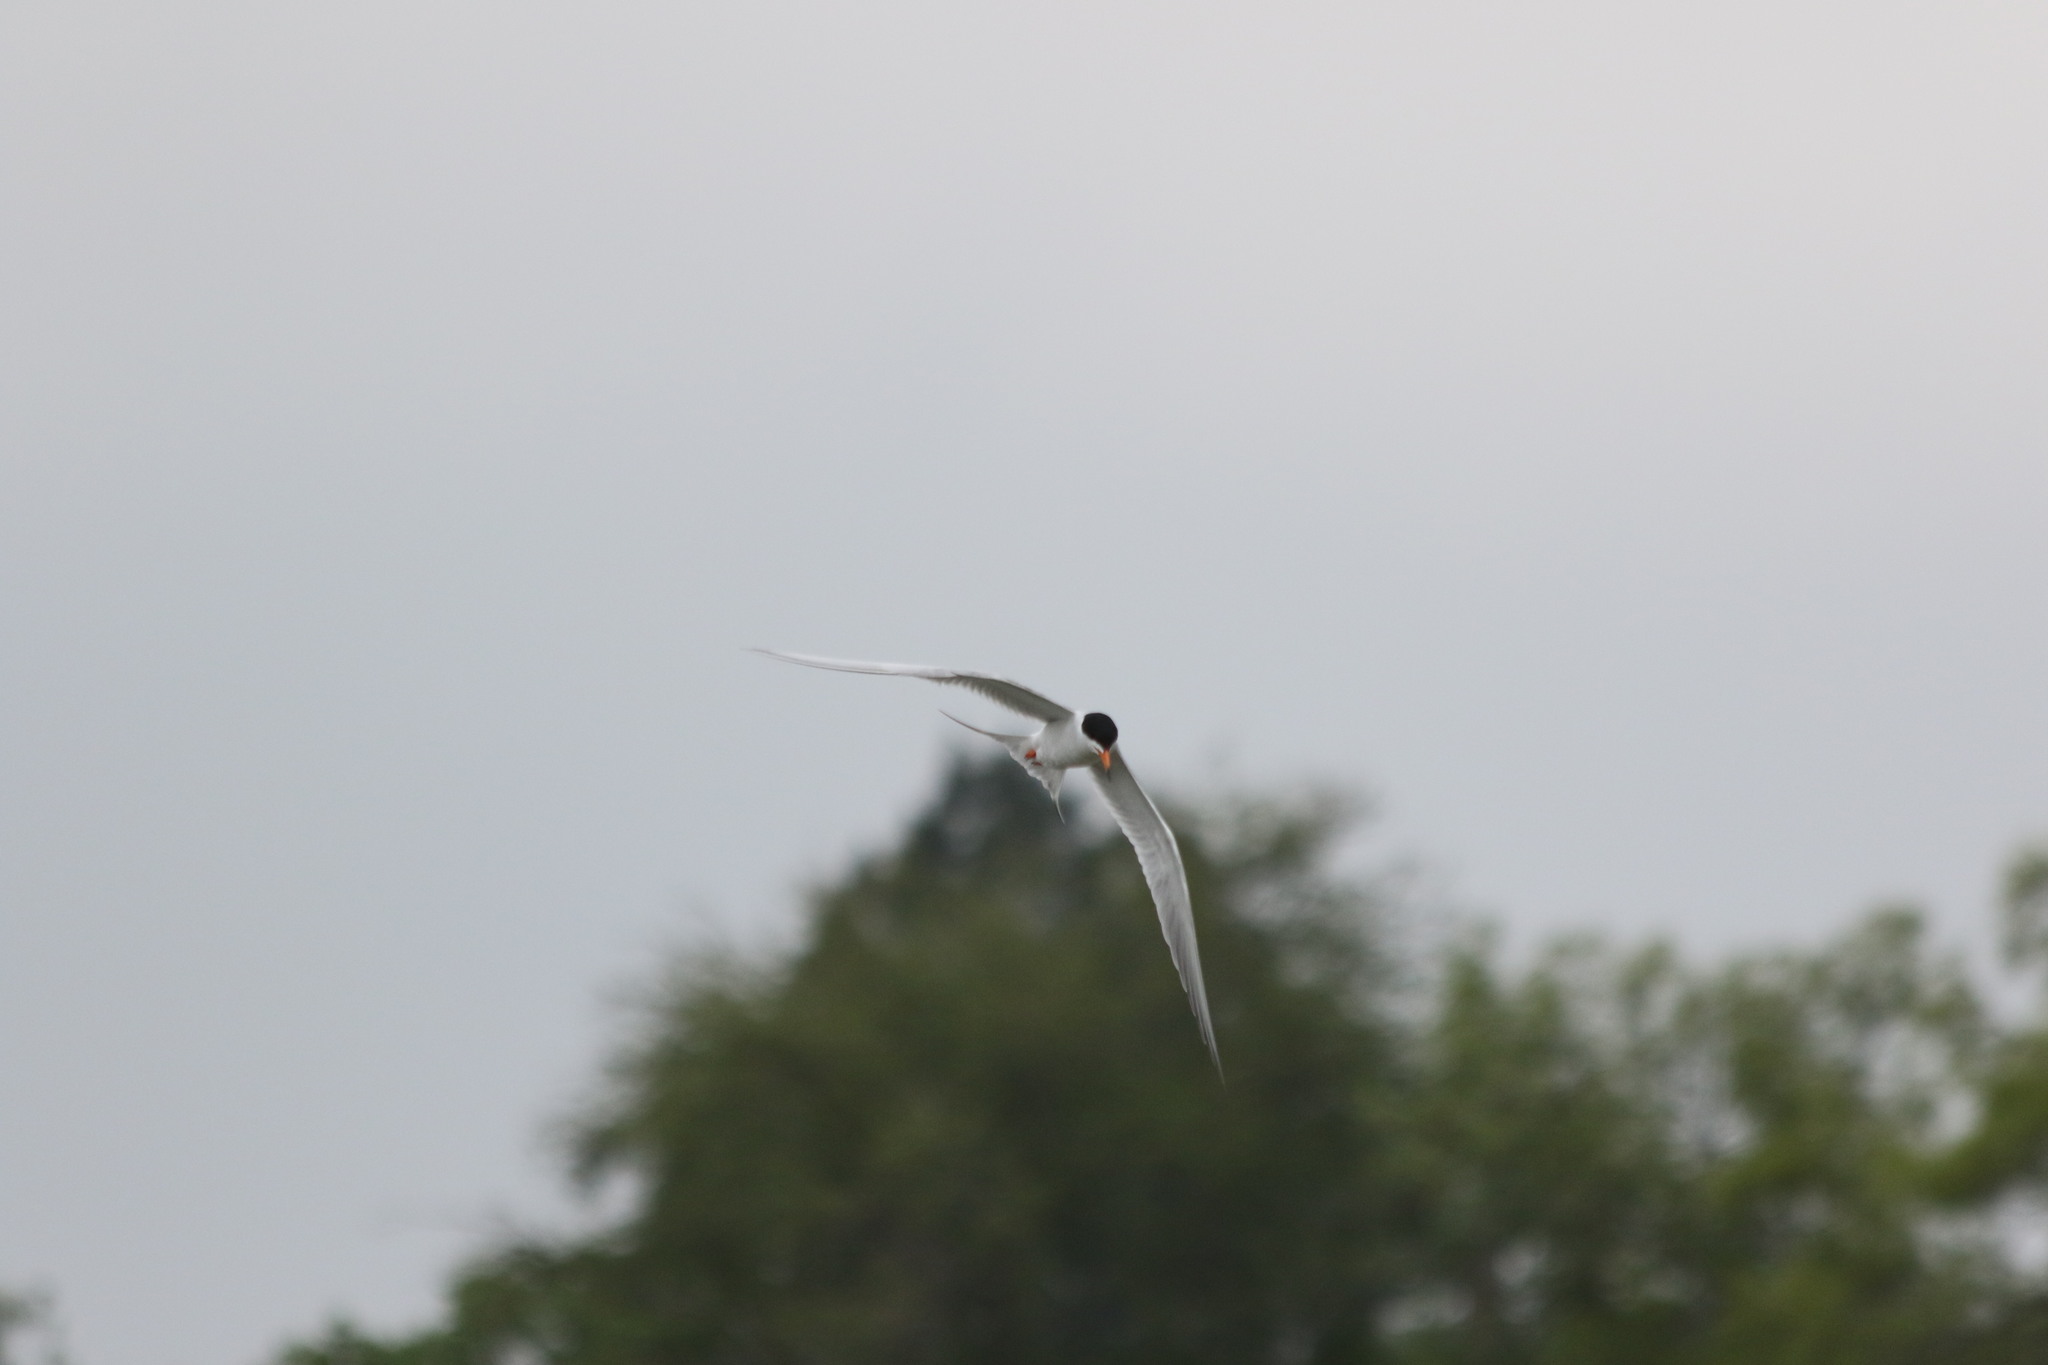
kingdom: Animalia
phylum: Chordata
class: Aves
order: Charadriiformes
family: Laridae
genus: Sterna
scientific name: Sterna forsteri
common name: Forster's tern
